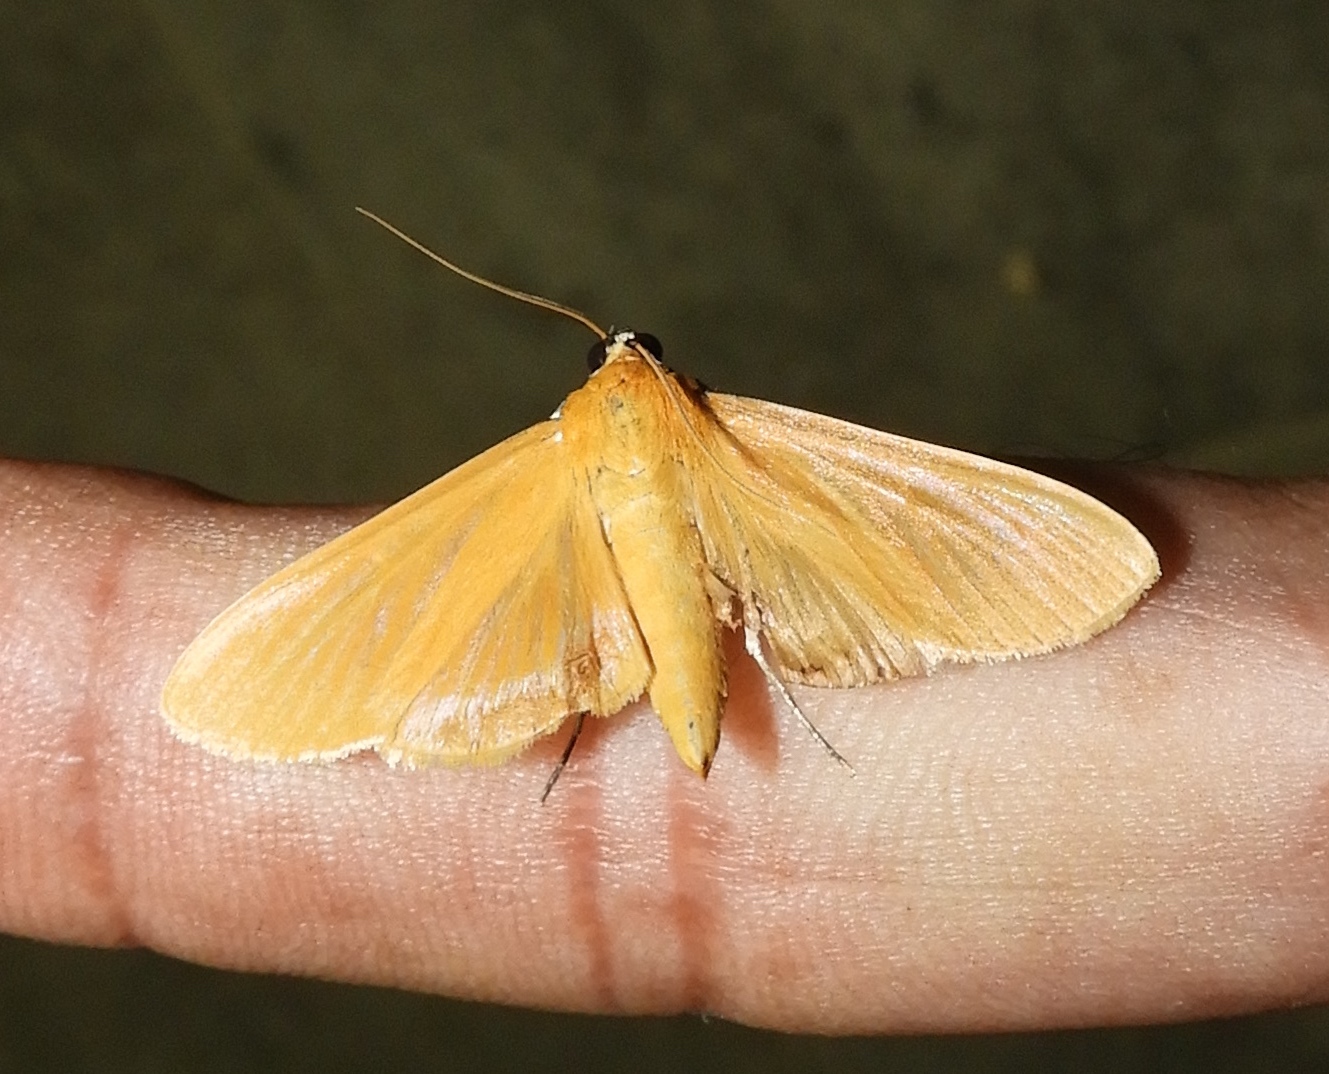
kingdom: Animalia
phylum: Arthropoda
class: Insecta
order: Lepidoptera
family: Crambidae
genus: Phostria
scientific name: Phostria
